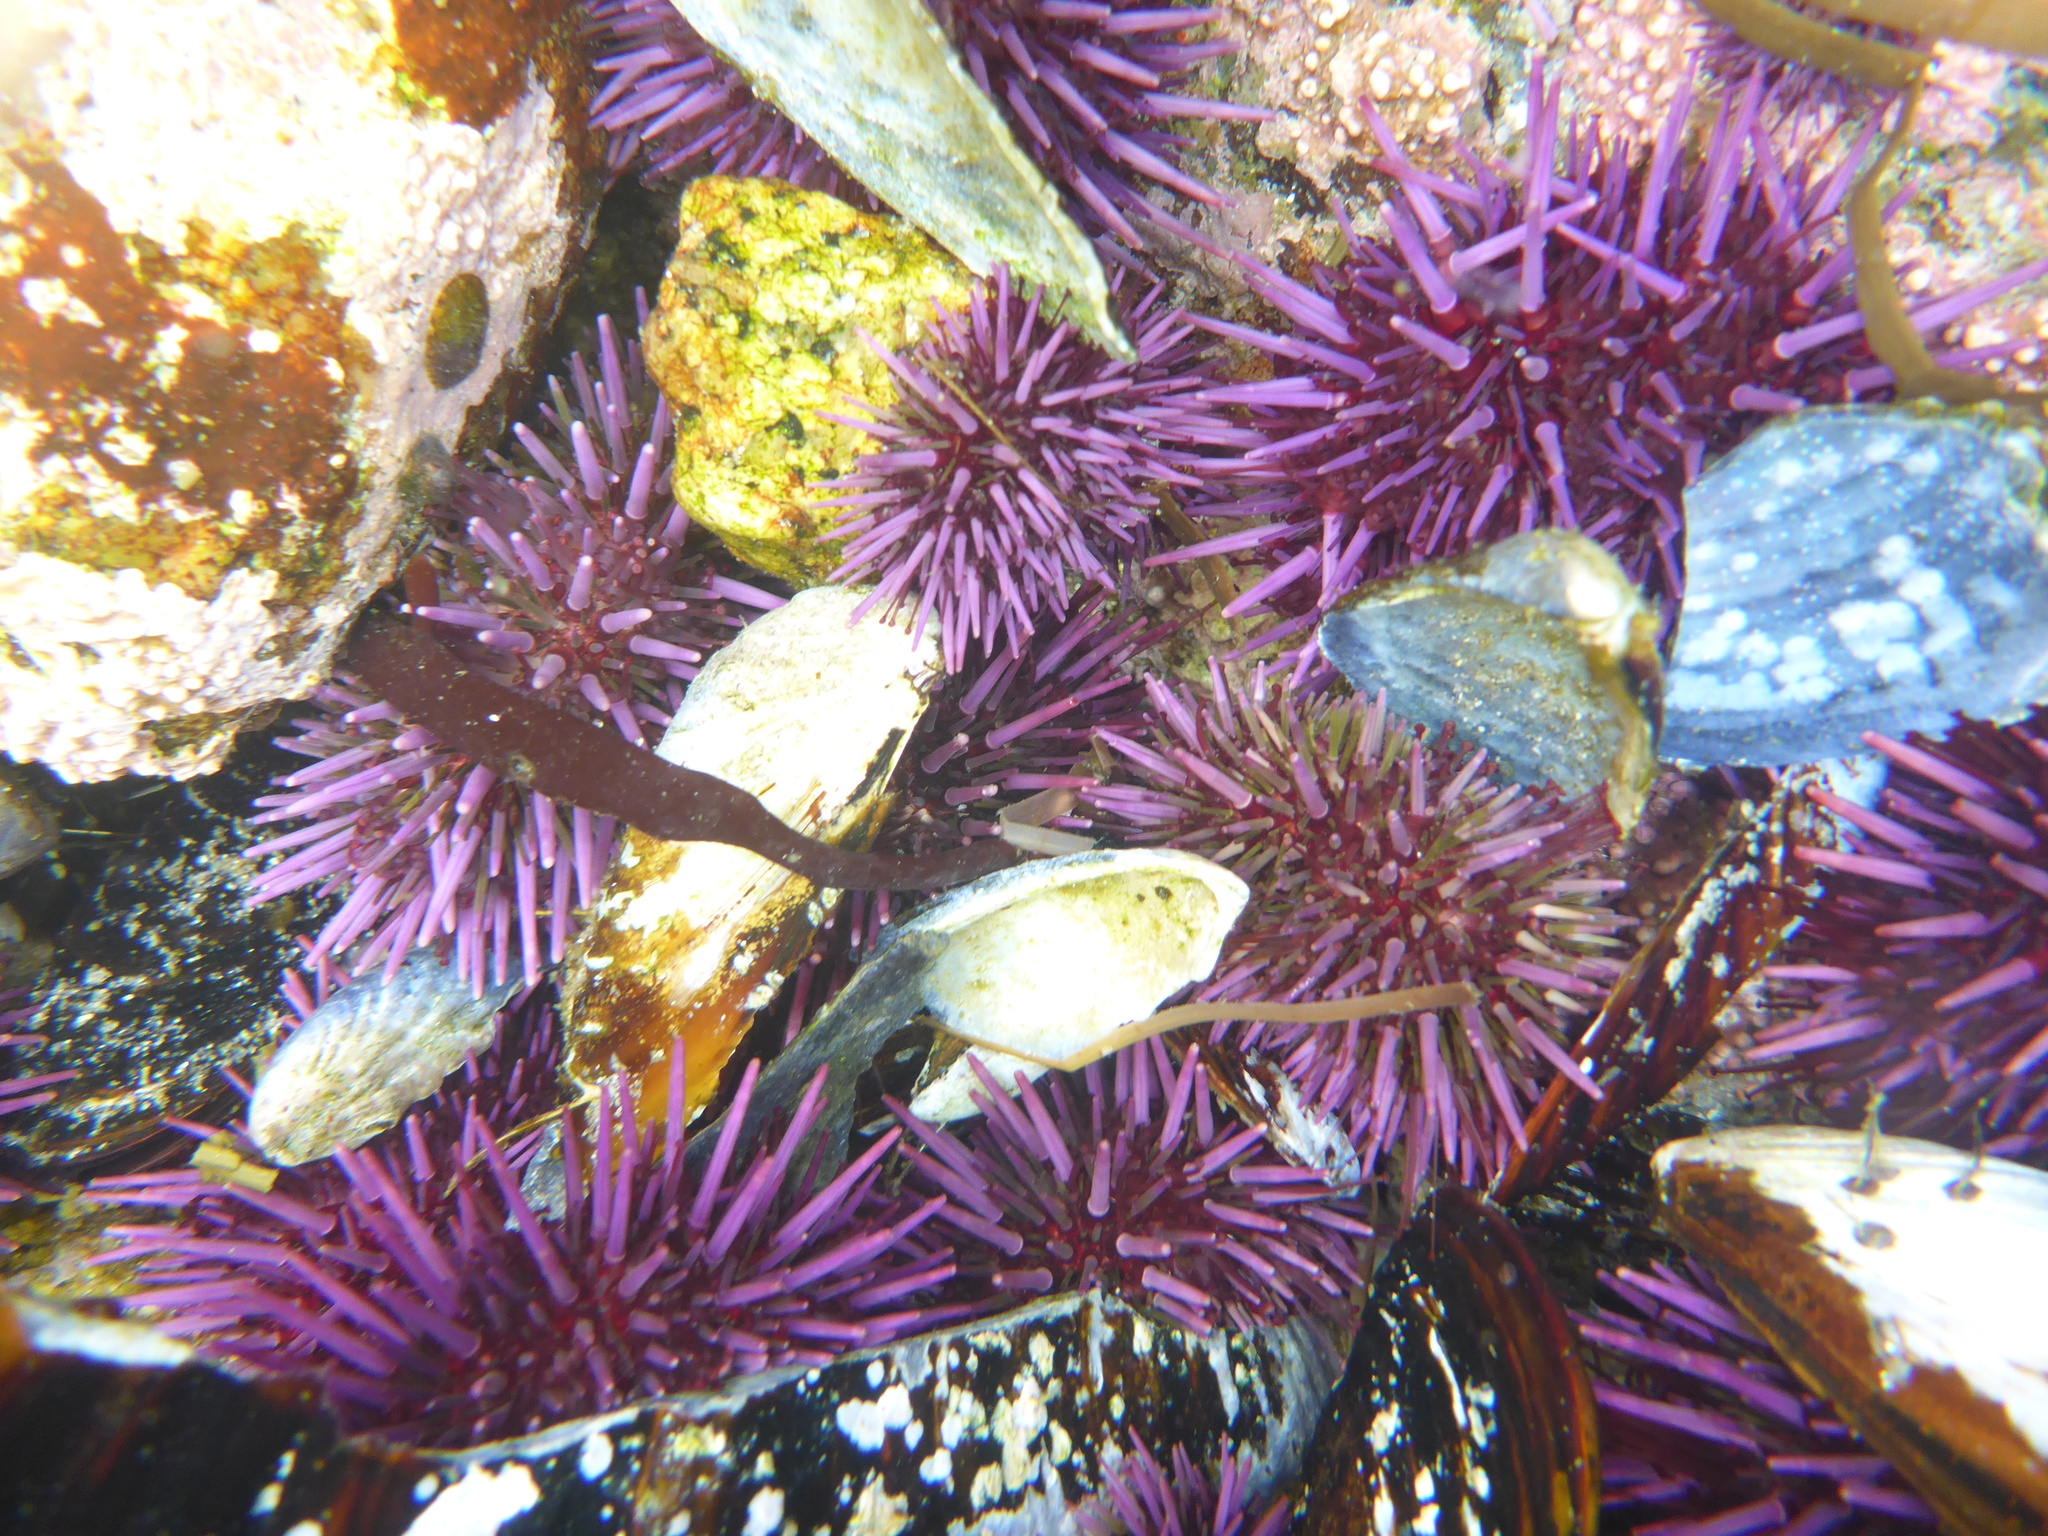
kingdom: Animalia
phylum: Echinodermata
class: Echinoidea
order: Camarodonta
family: Strongylocentrotidae
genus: Strongylocentrotus
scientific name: Strongylocentrotus purpuratus
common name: Purple sea urchin
